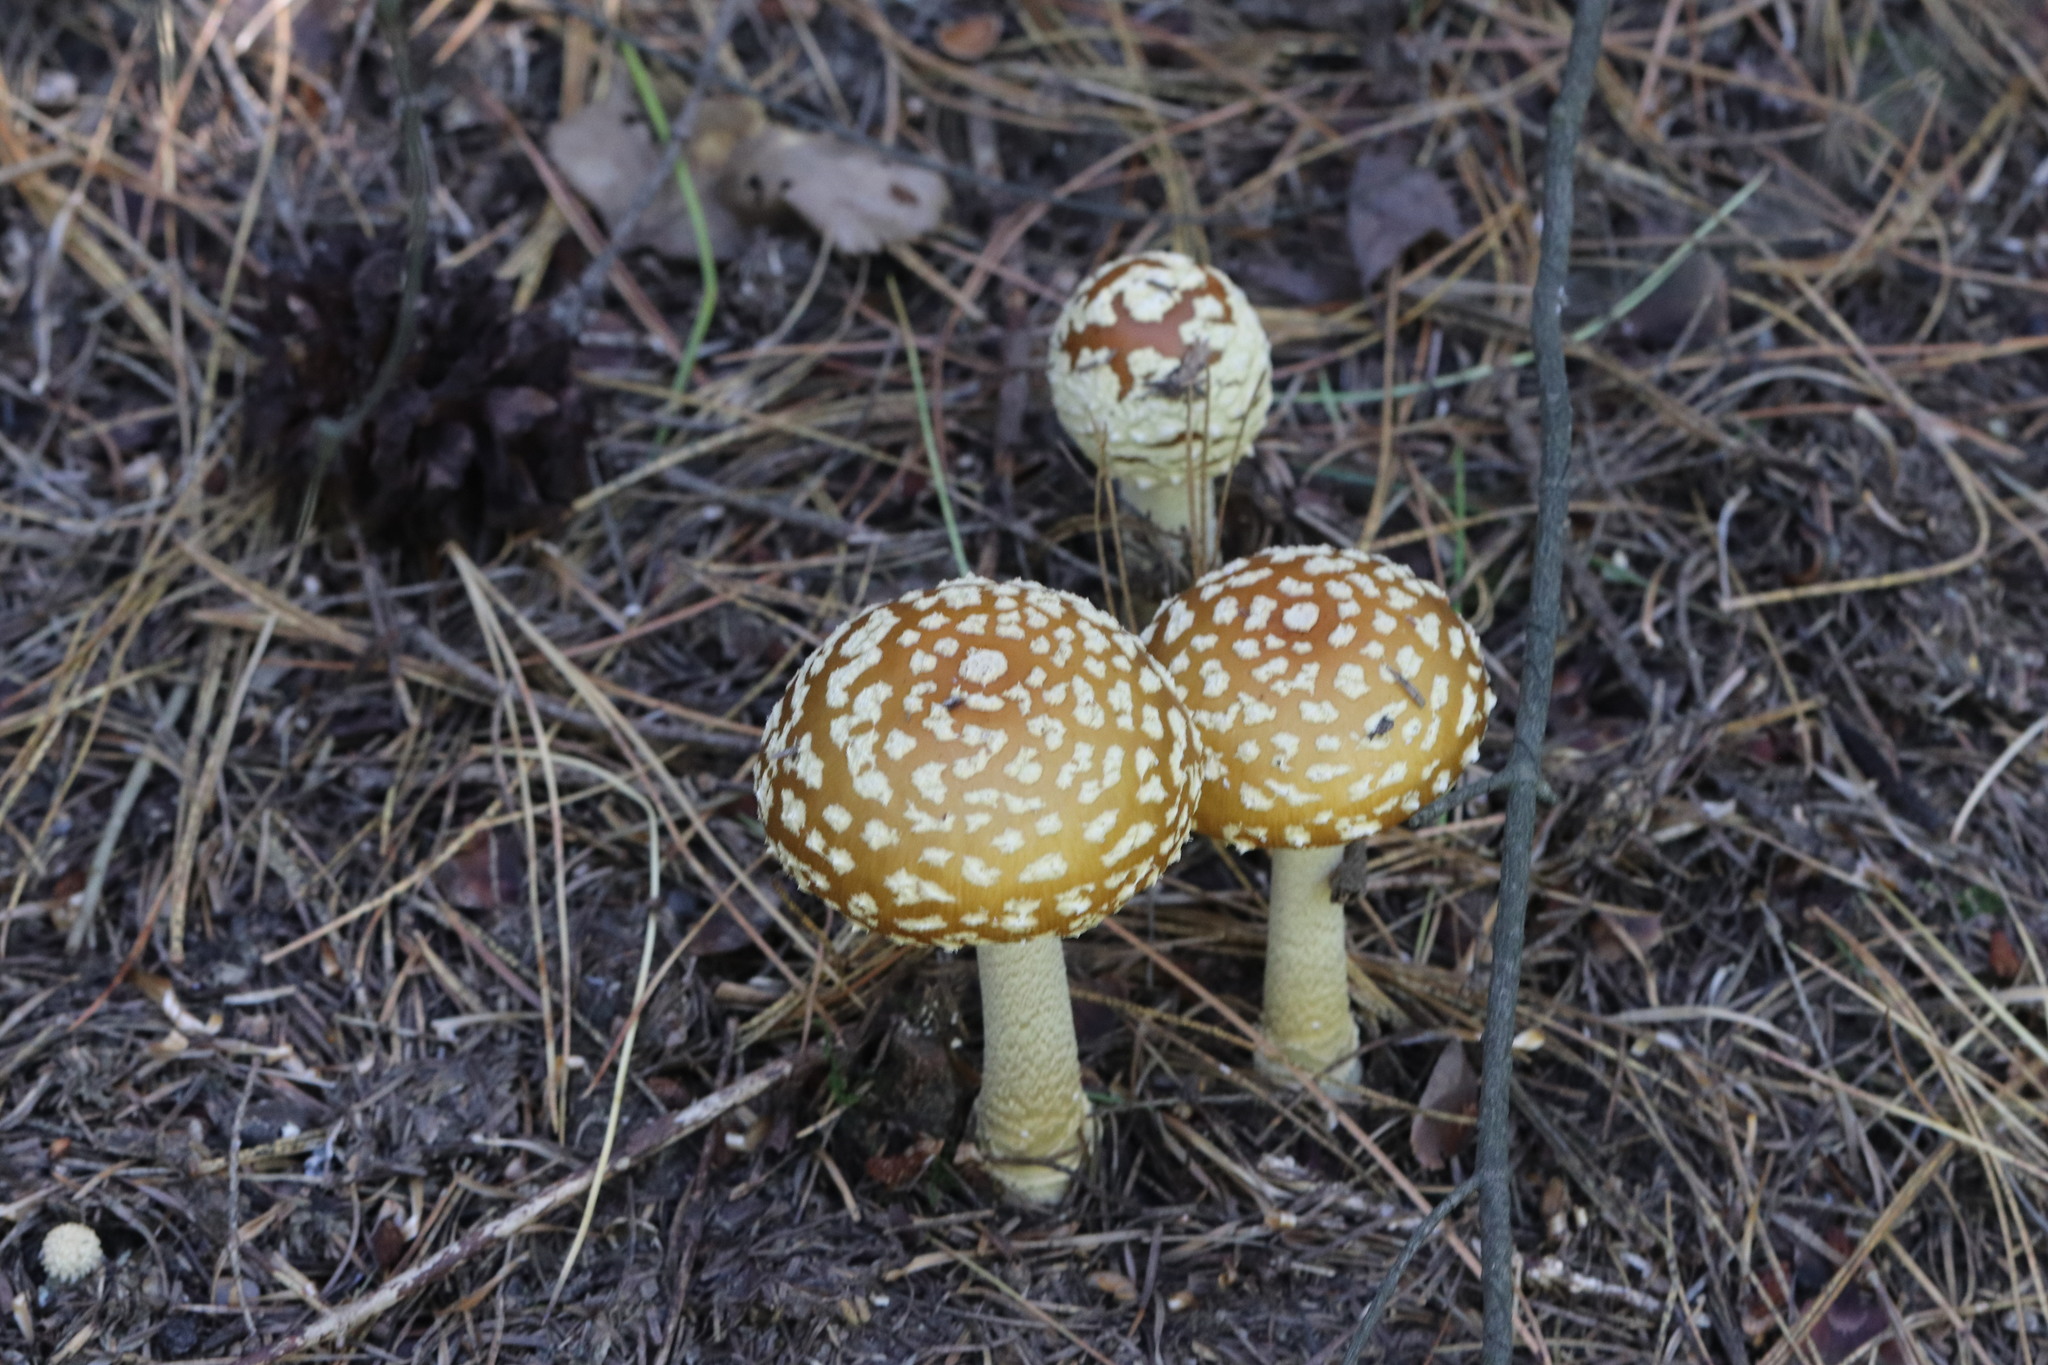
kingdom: Fungi
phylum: Basidiomycota
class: Agaricomycetes
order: Agaricales
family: Amanitaceae
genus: Amanita
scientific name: Amanita regalis
